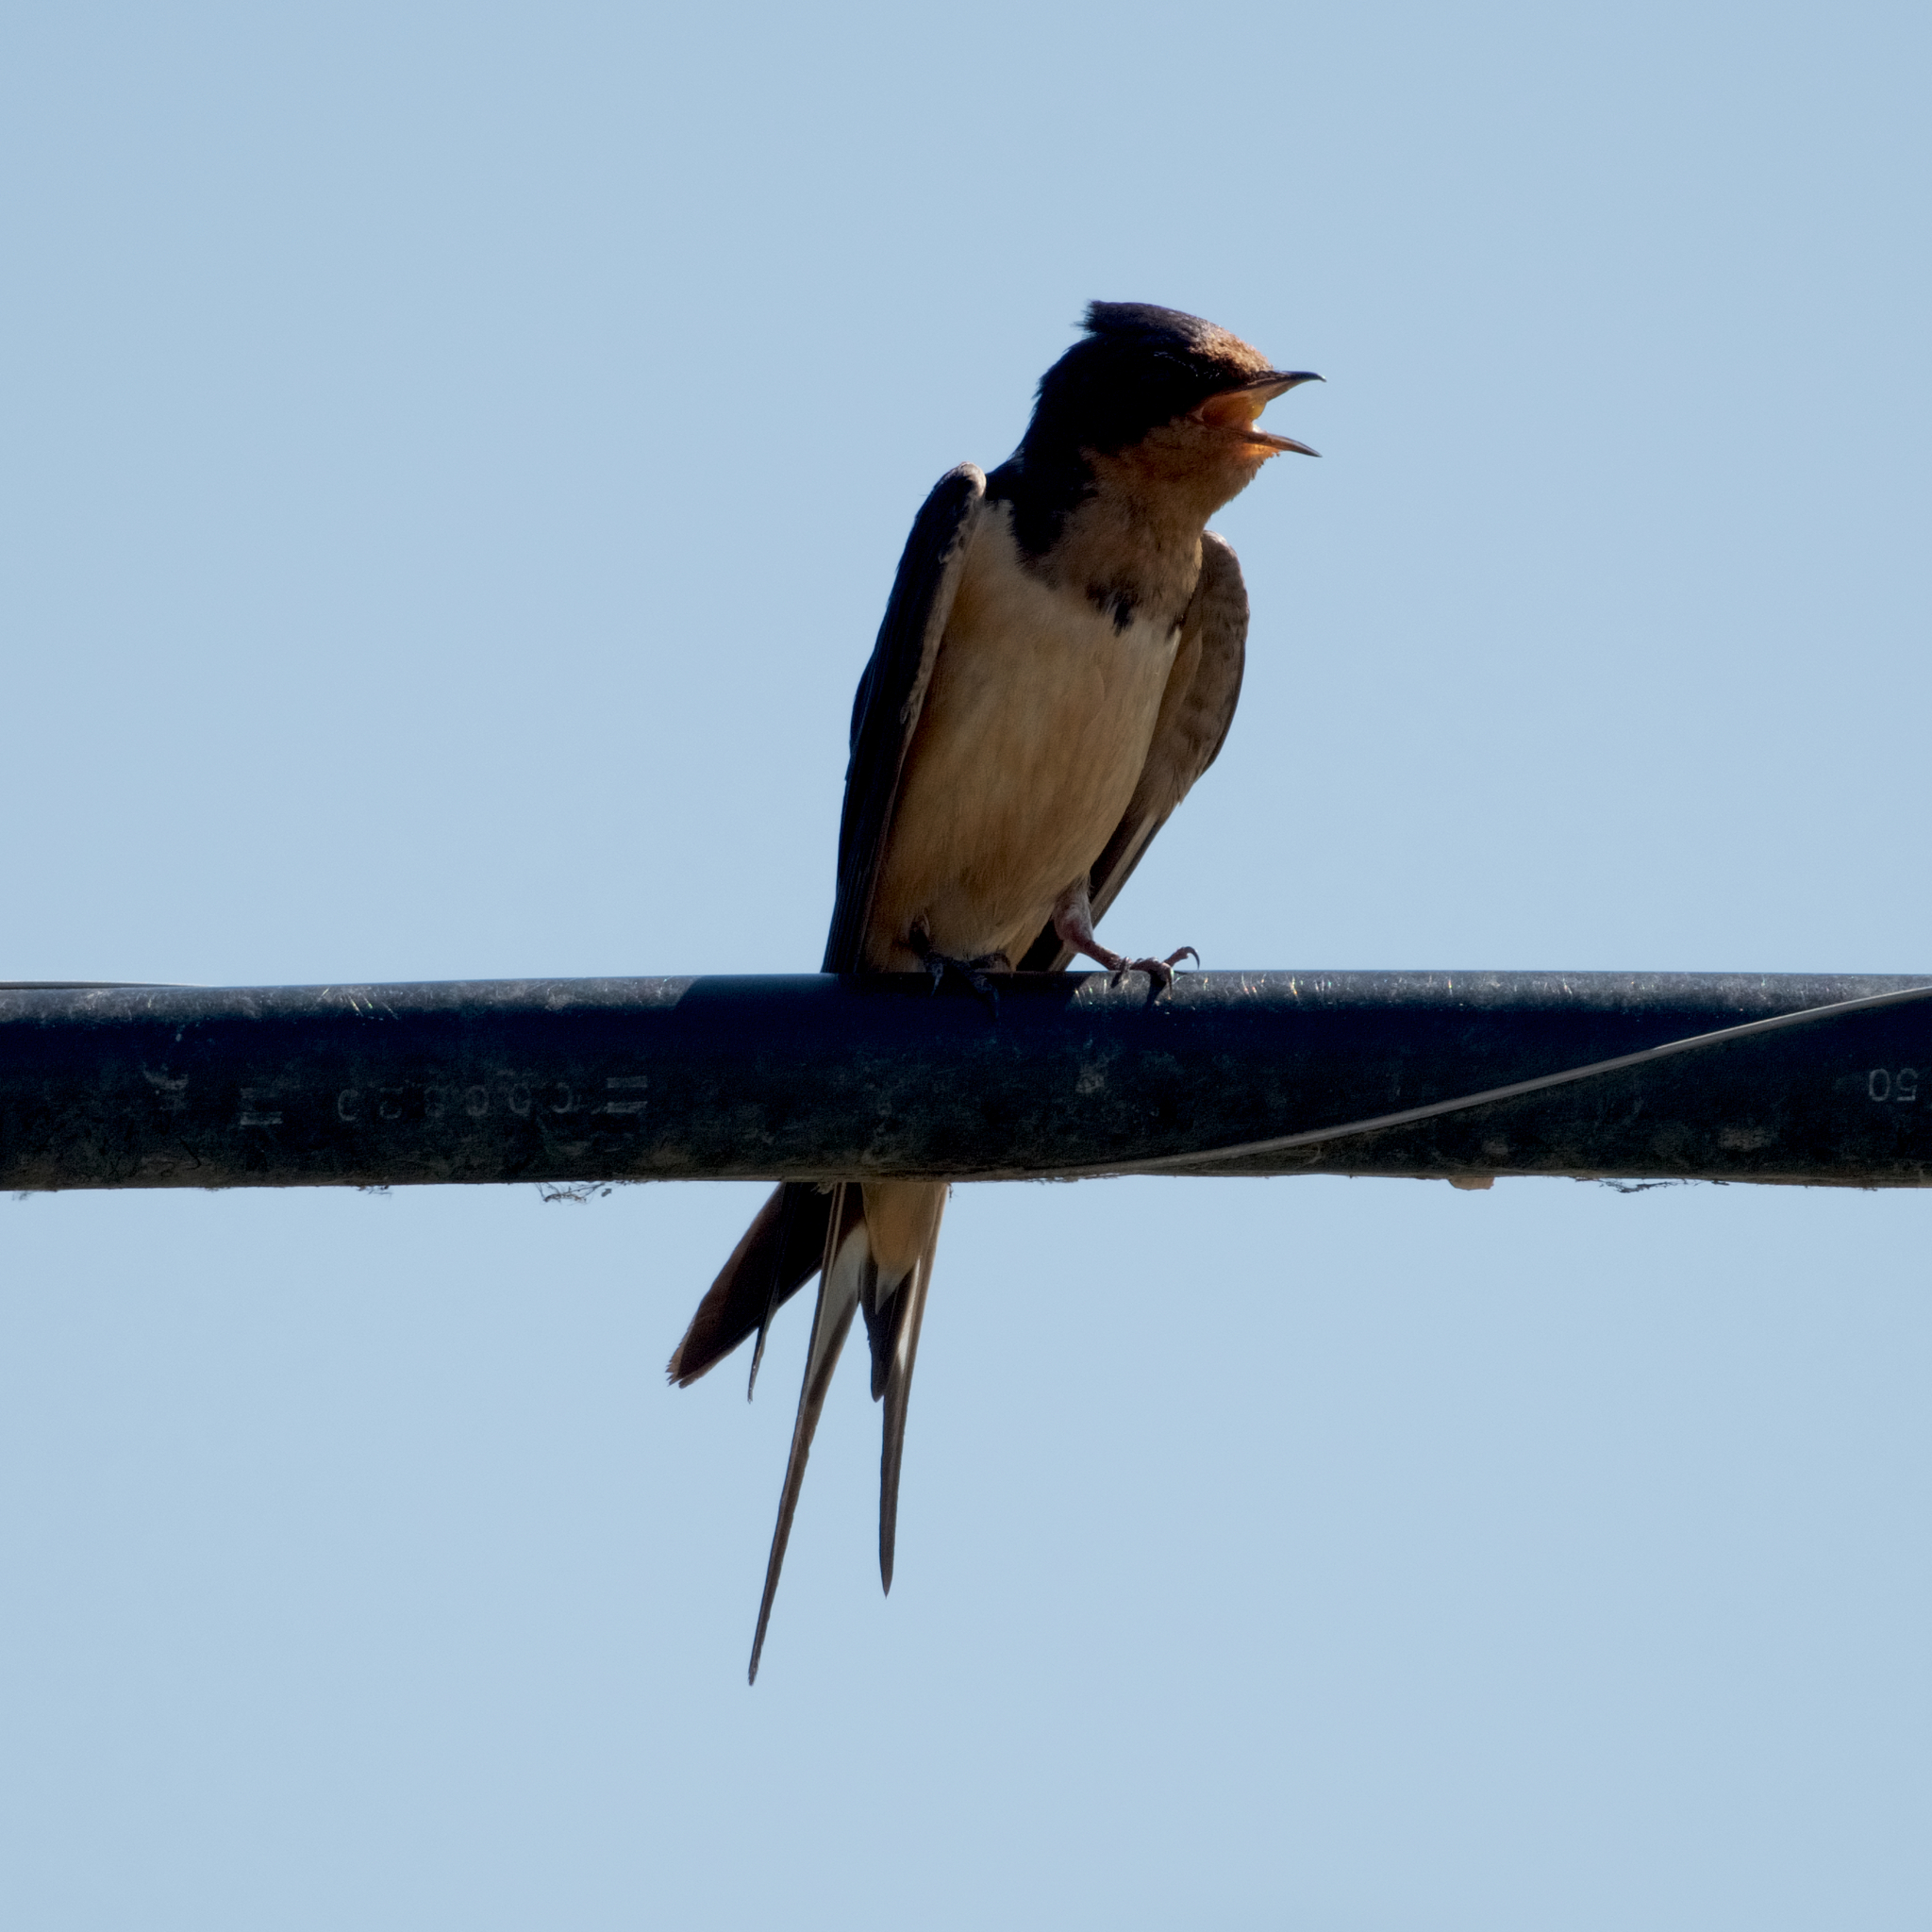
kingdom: Animalia
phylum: Chordata
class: Aves
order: Passeriformes
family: Hirundinidae
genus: Hirundo
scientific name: Hirundo rustica
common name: Barn swallow
